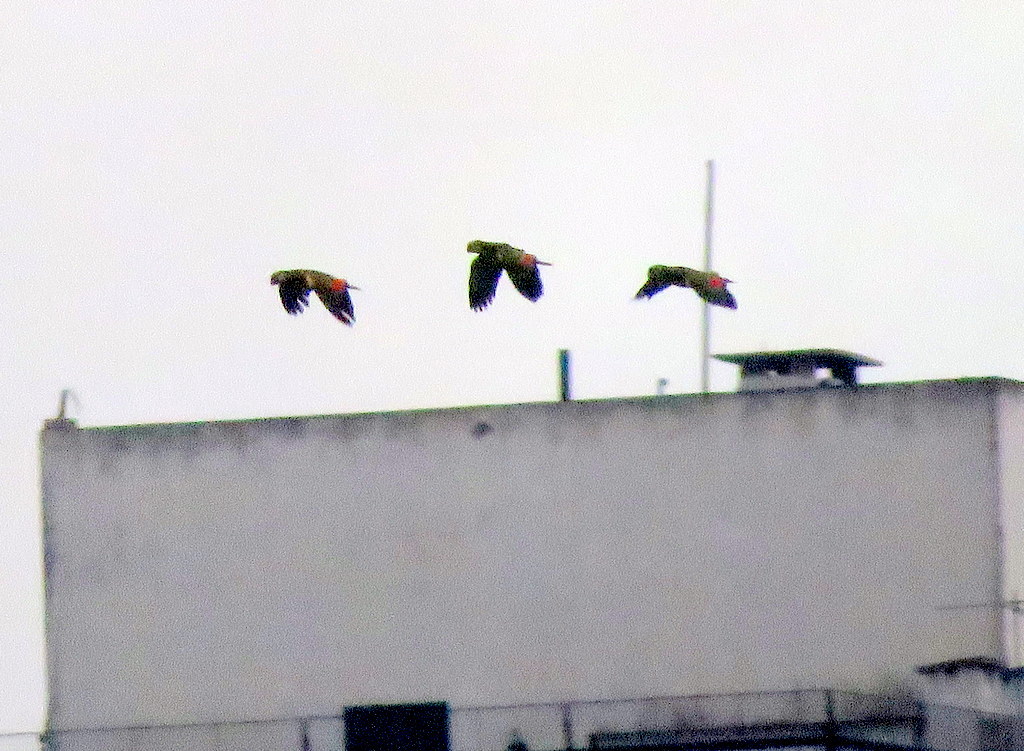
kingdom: Animalia
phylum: Chordata
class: Aves
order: Psittaciformes
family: Psittacidae
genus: Amazona
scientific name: Amazona aestiva
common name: Turquoise-fronted amazon
